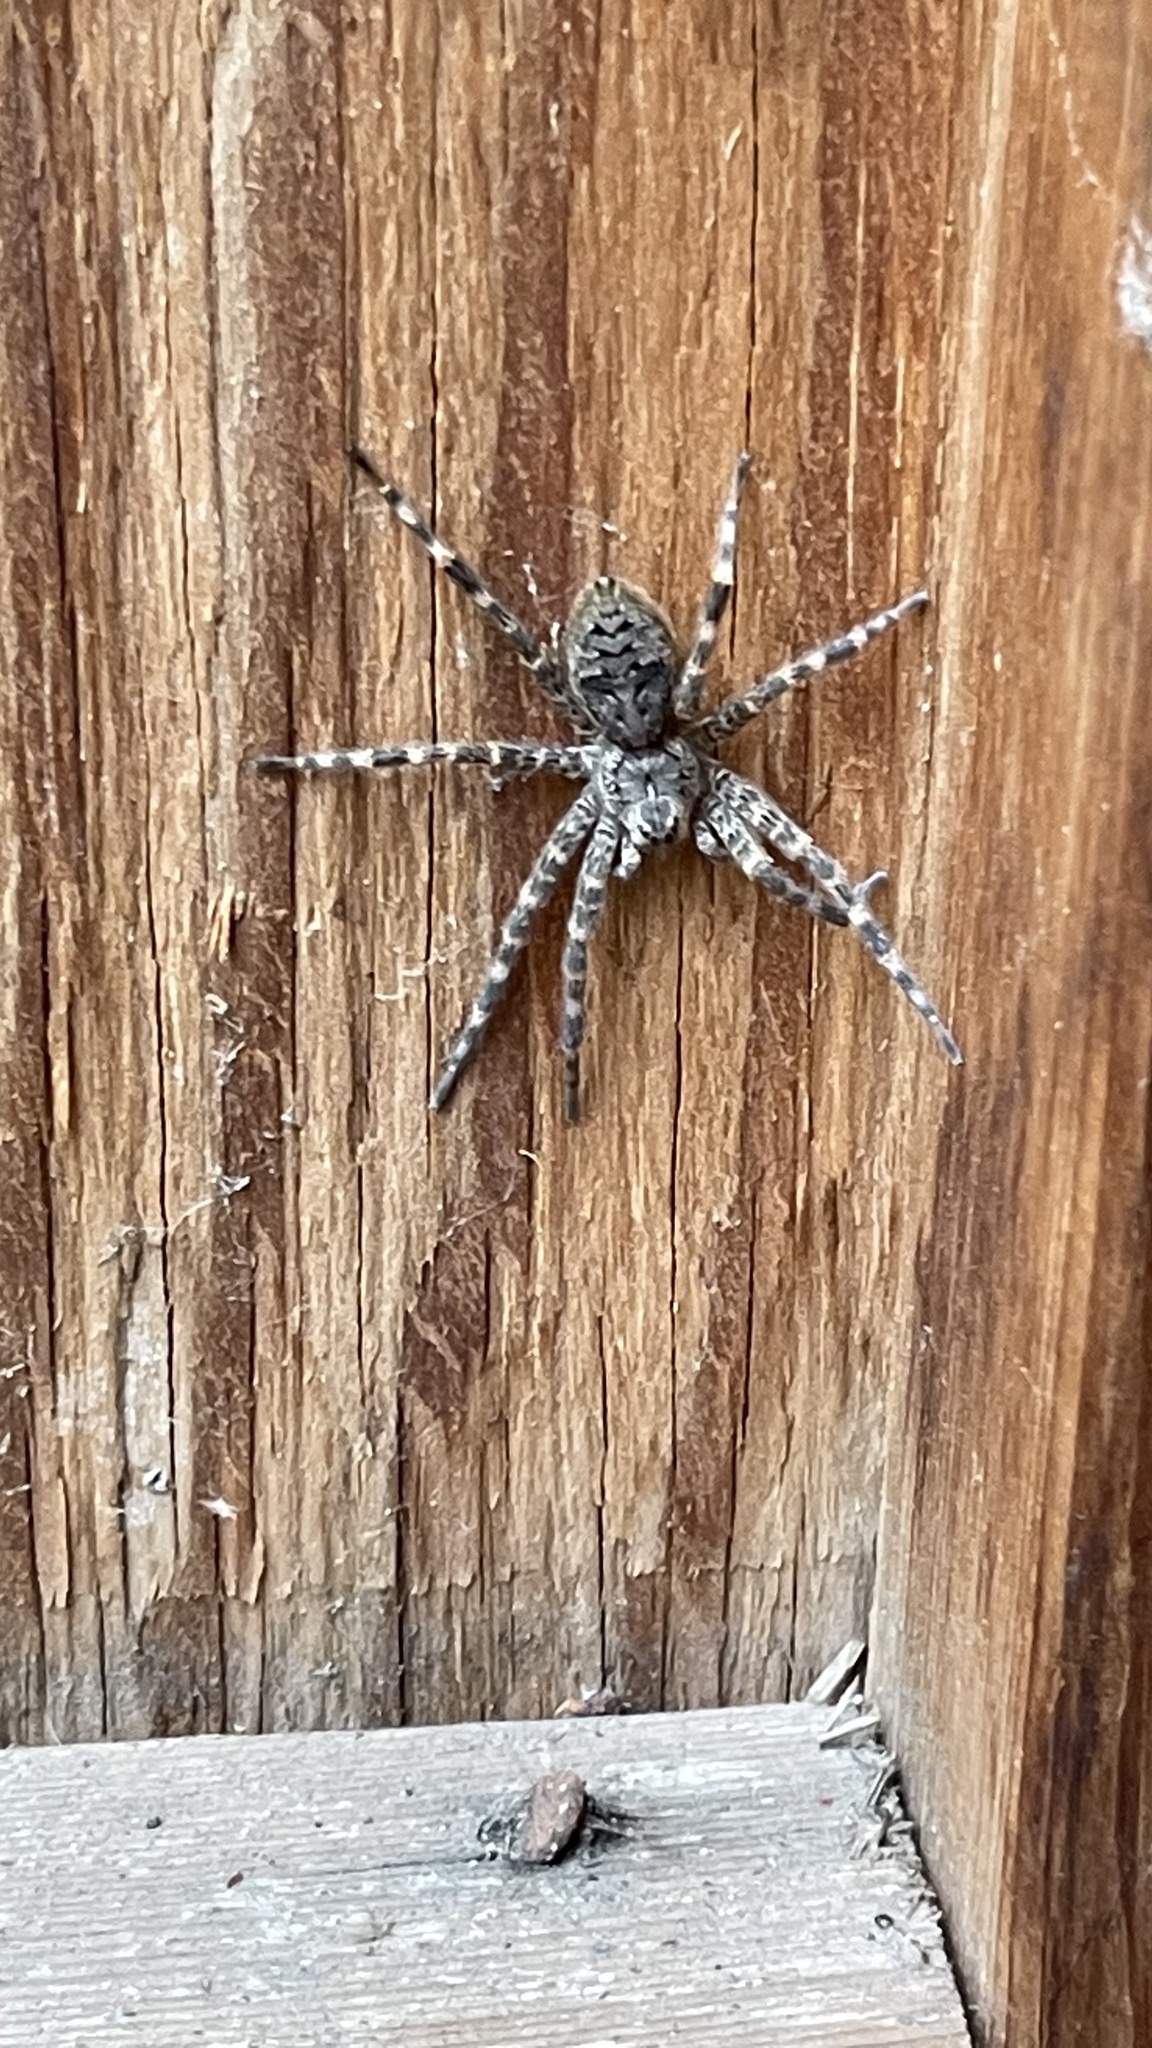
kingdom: Animalia
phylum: Arthropoda
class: Arachnida
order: Araneae
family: Pisauridae
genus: Dolomedes
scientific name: Dolomedes tenebrosus
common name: Dark fishing spider
